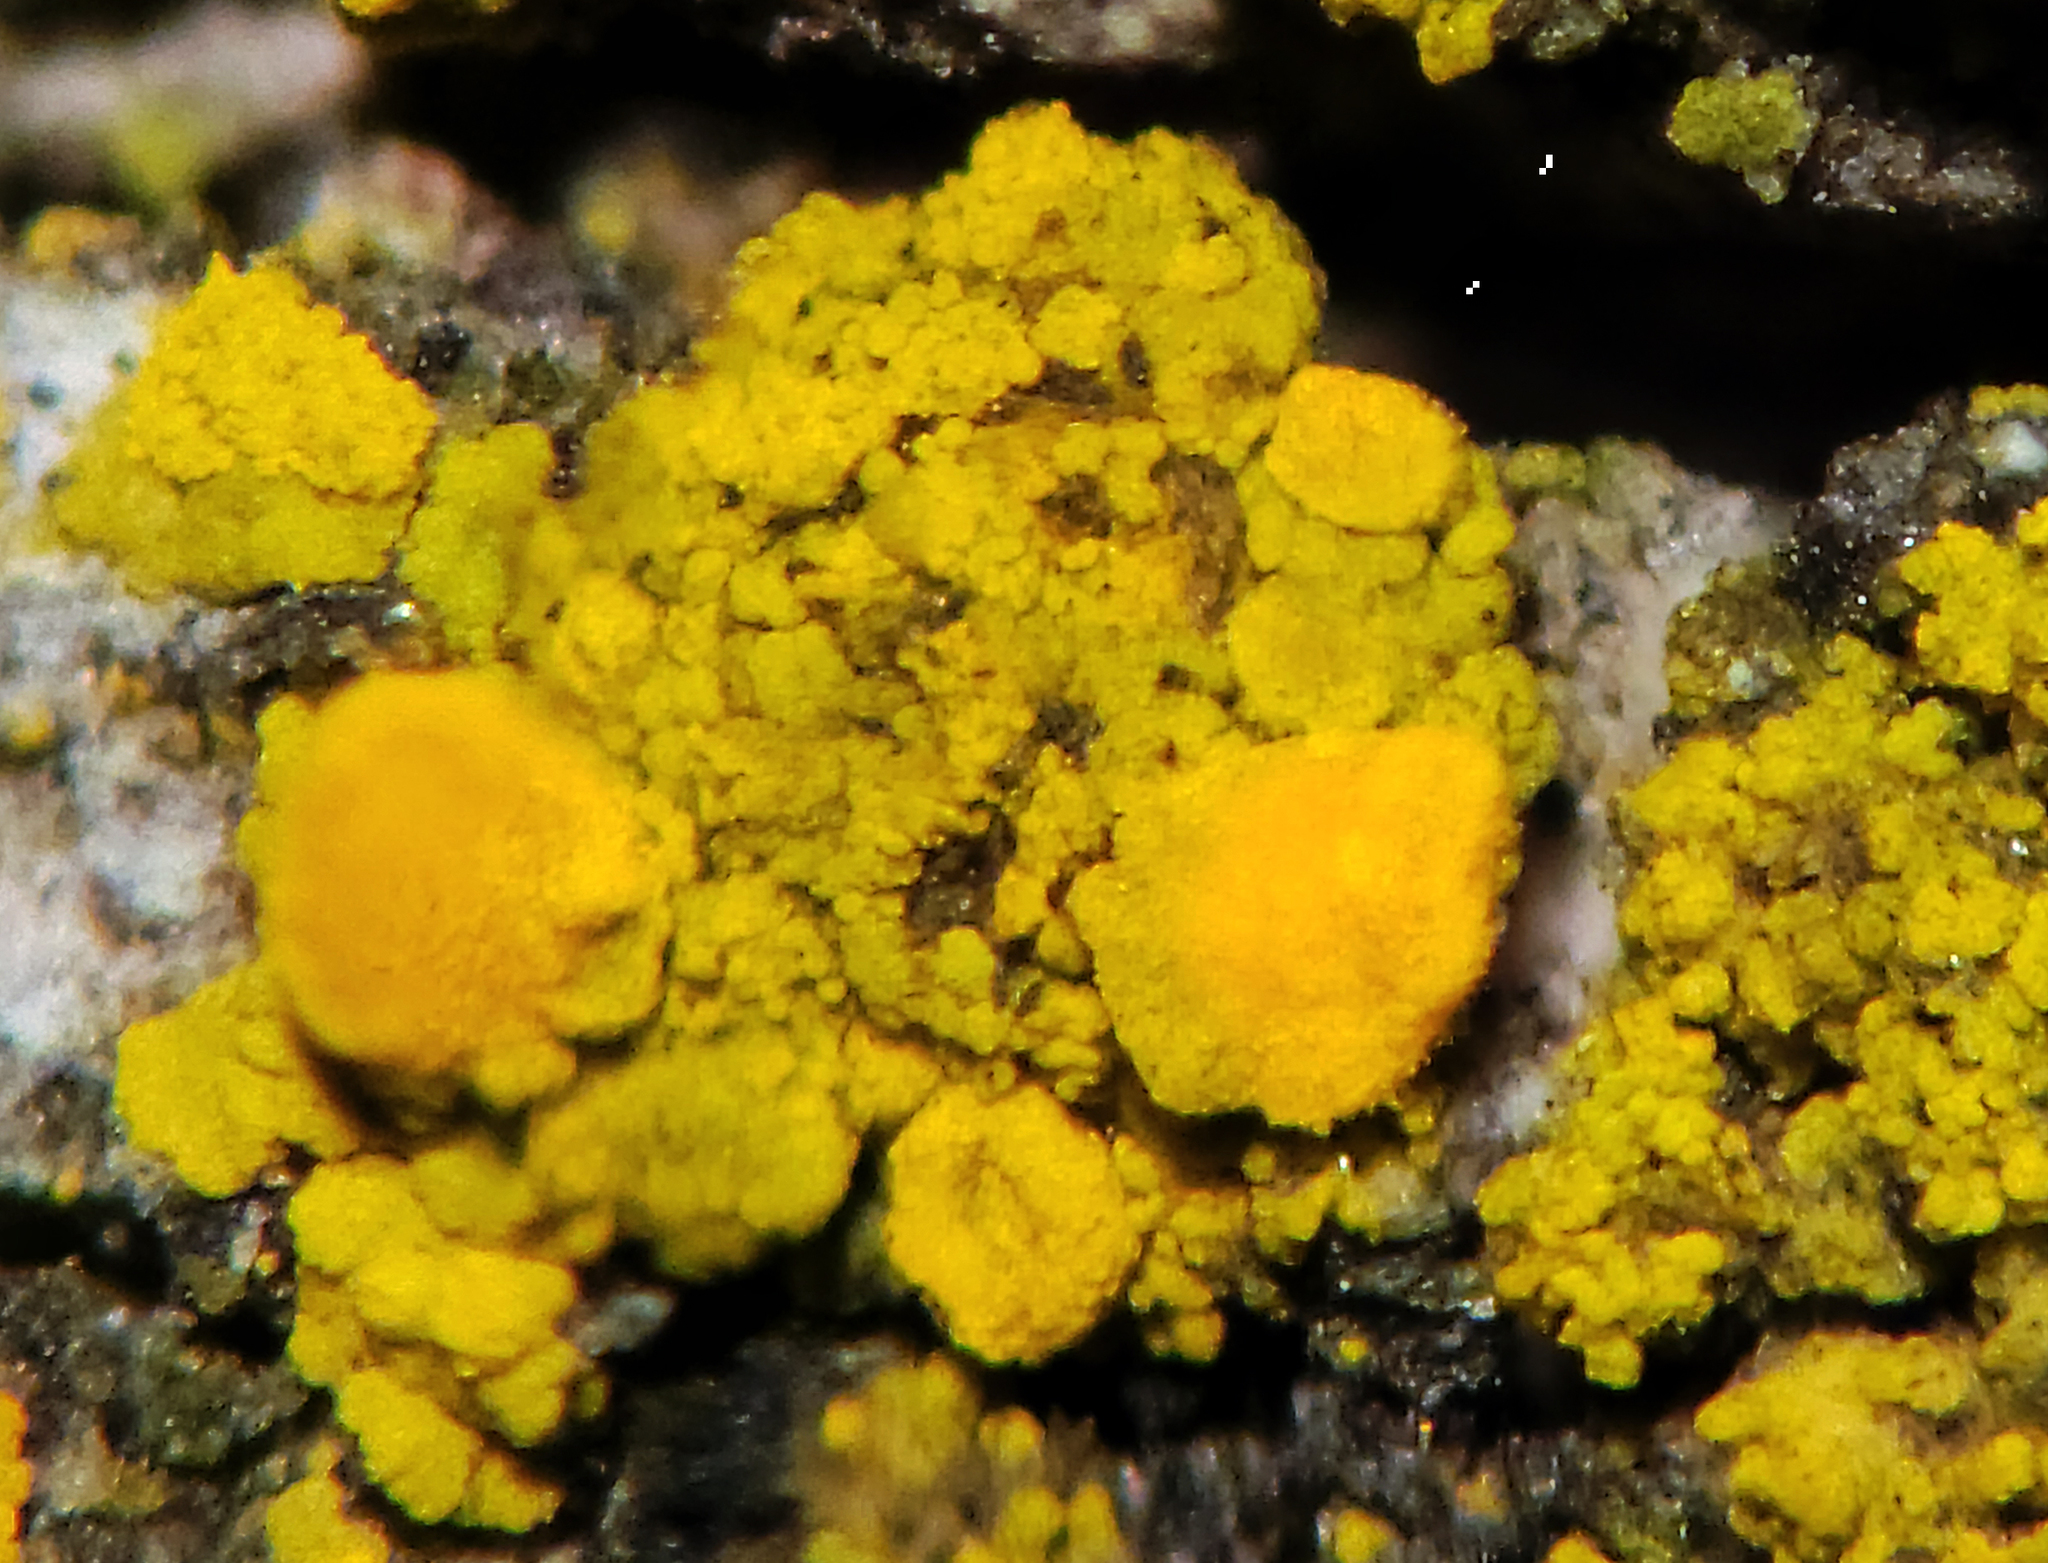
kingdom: Fungi
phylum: Ascomycota
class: Candelariomycetes
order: Candelariales
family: Candelariaceae
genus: Candelaria
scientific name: Candelaria concolor
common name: Candleflame lichen
